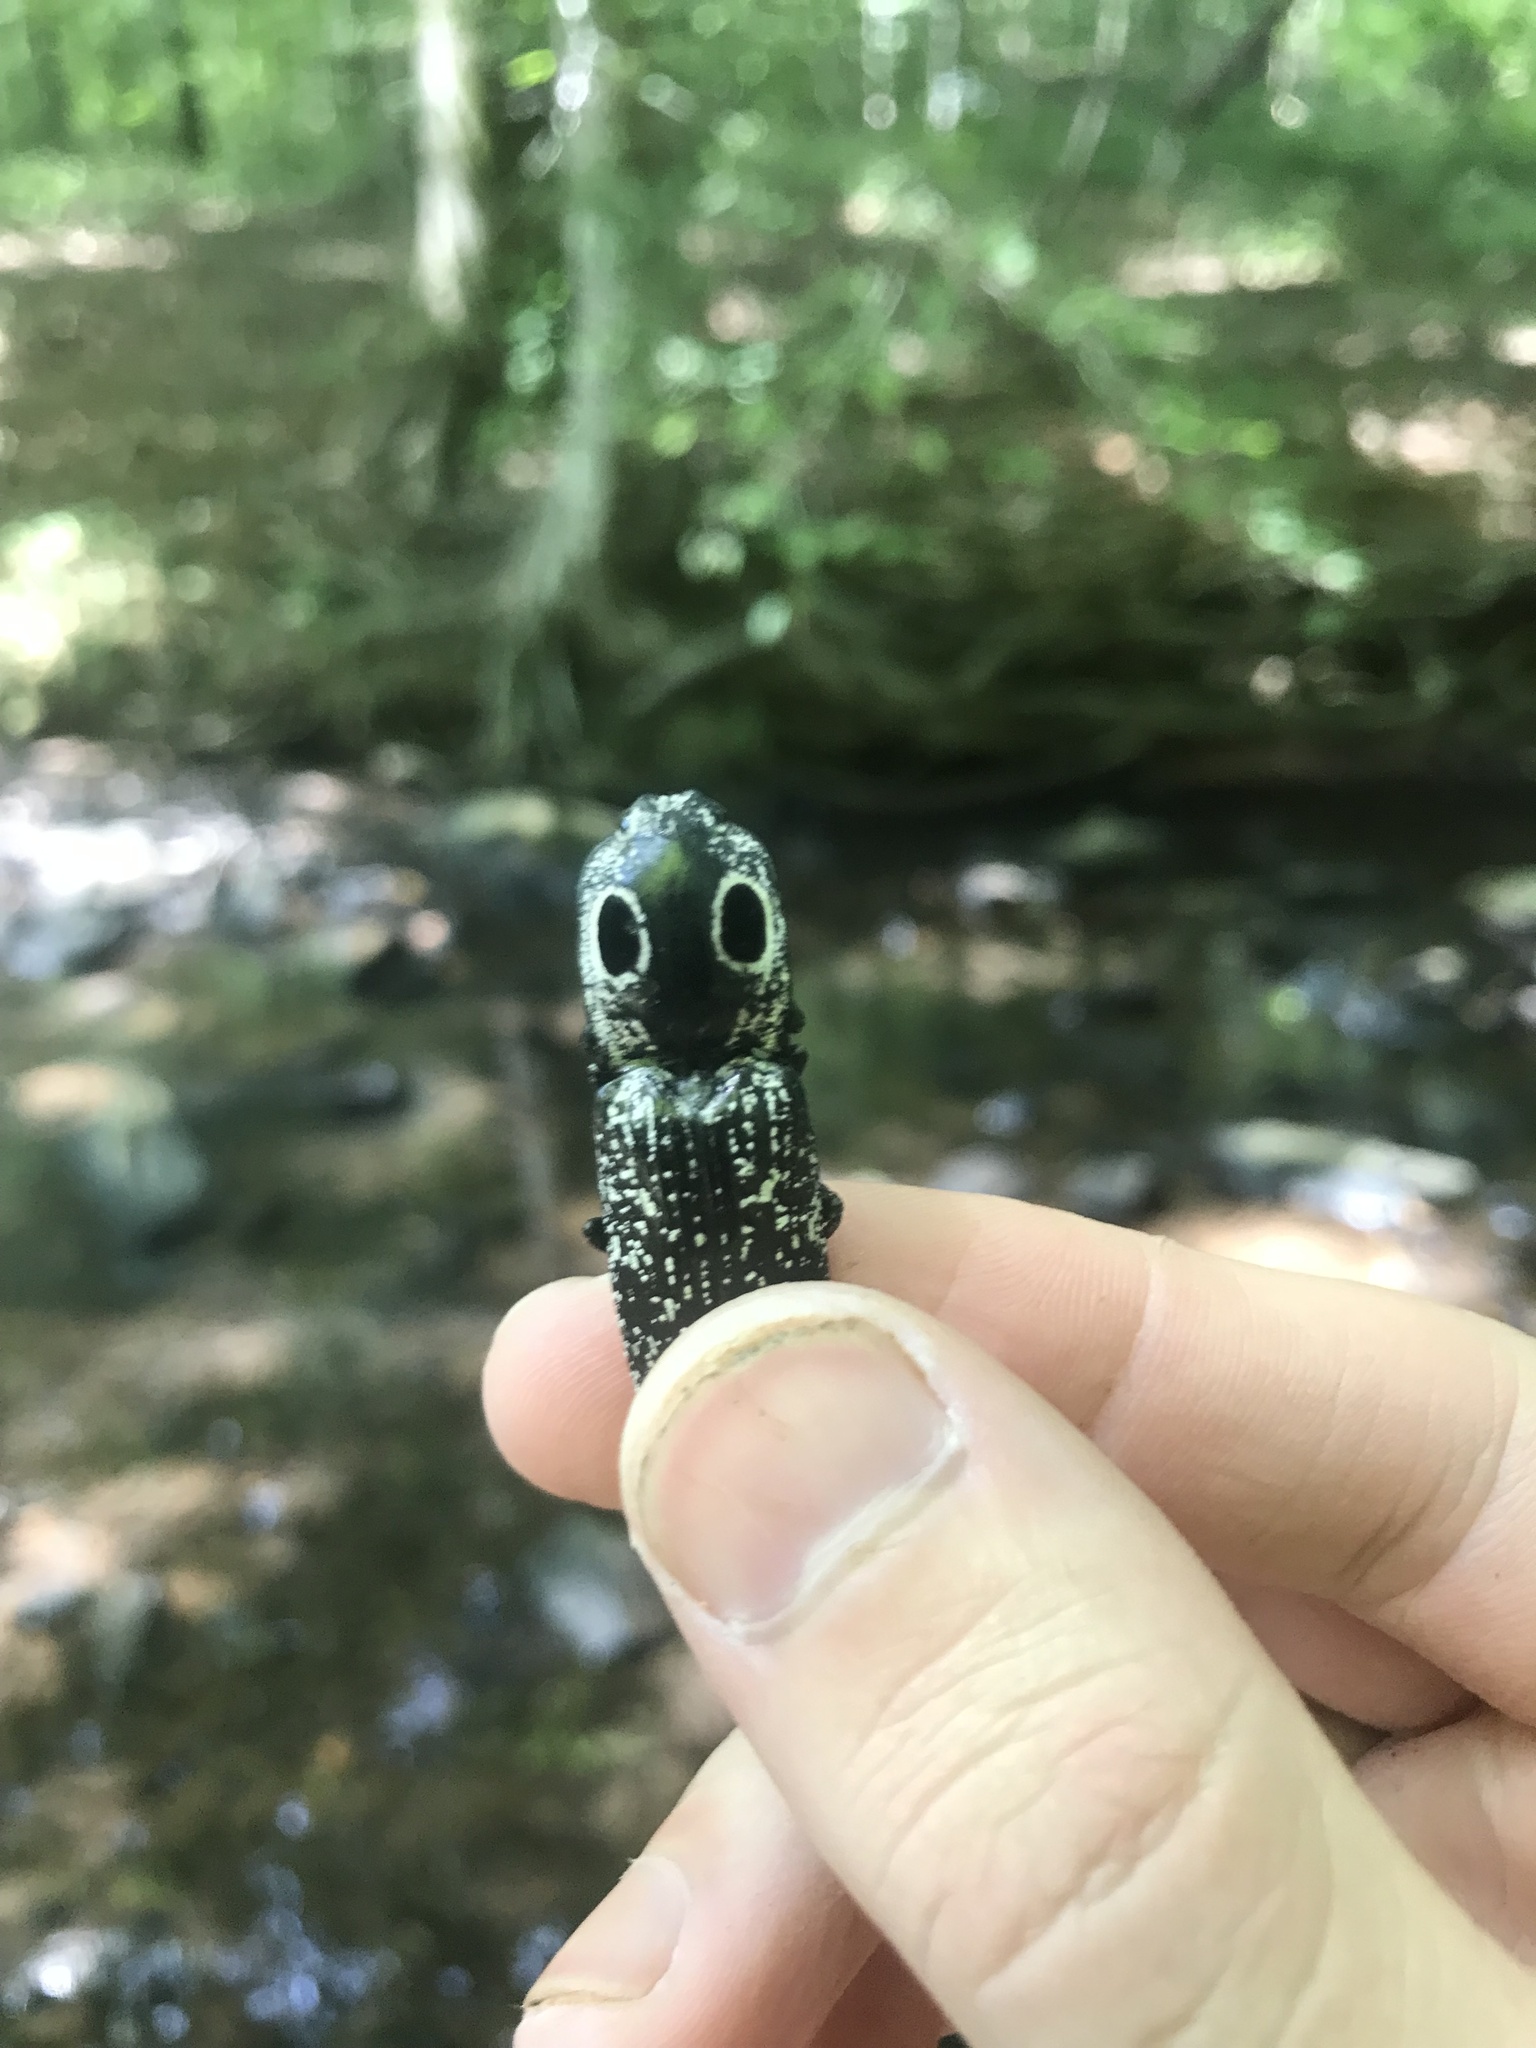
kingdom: Animalia
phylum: Arthropoda
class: Insecta
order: Coleoptera
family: Elateridae
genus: Alaus
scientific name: Alaus oculatus
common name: Eastern eyed click beetle
